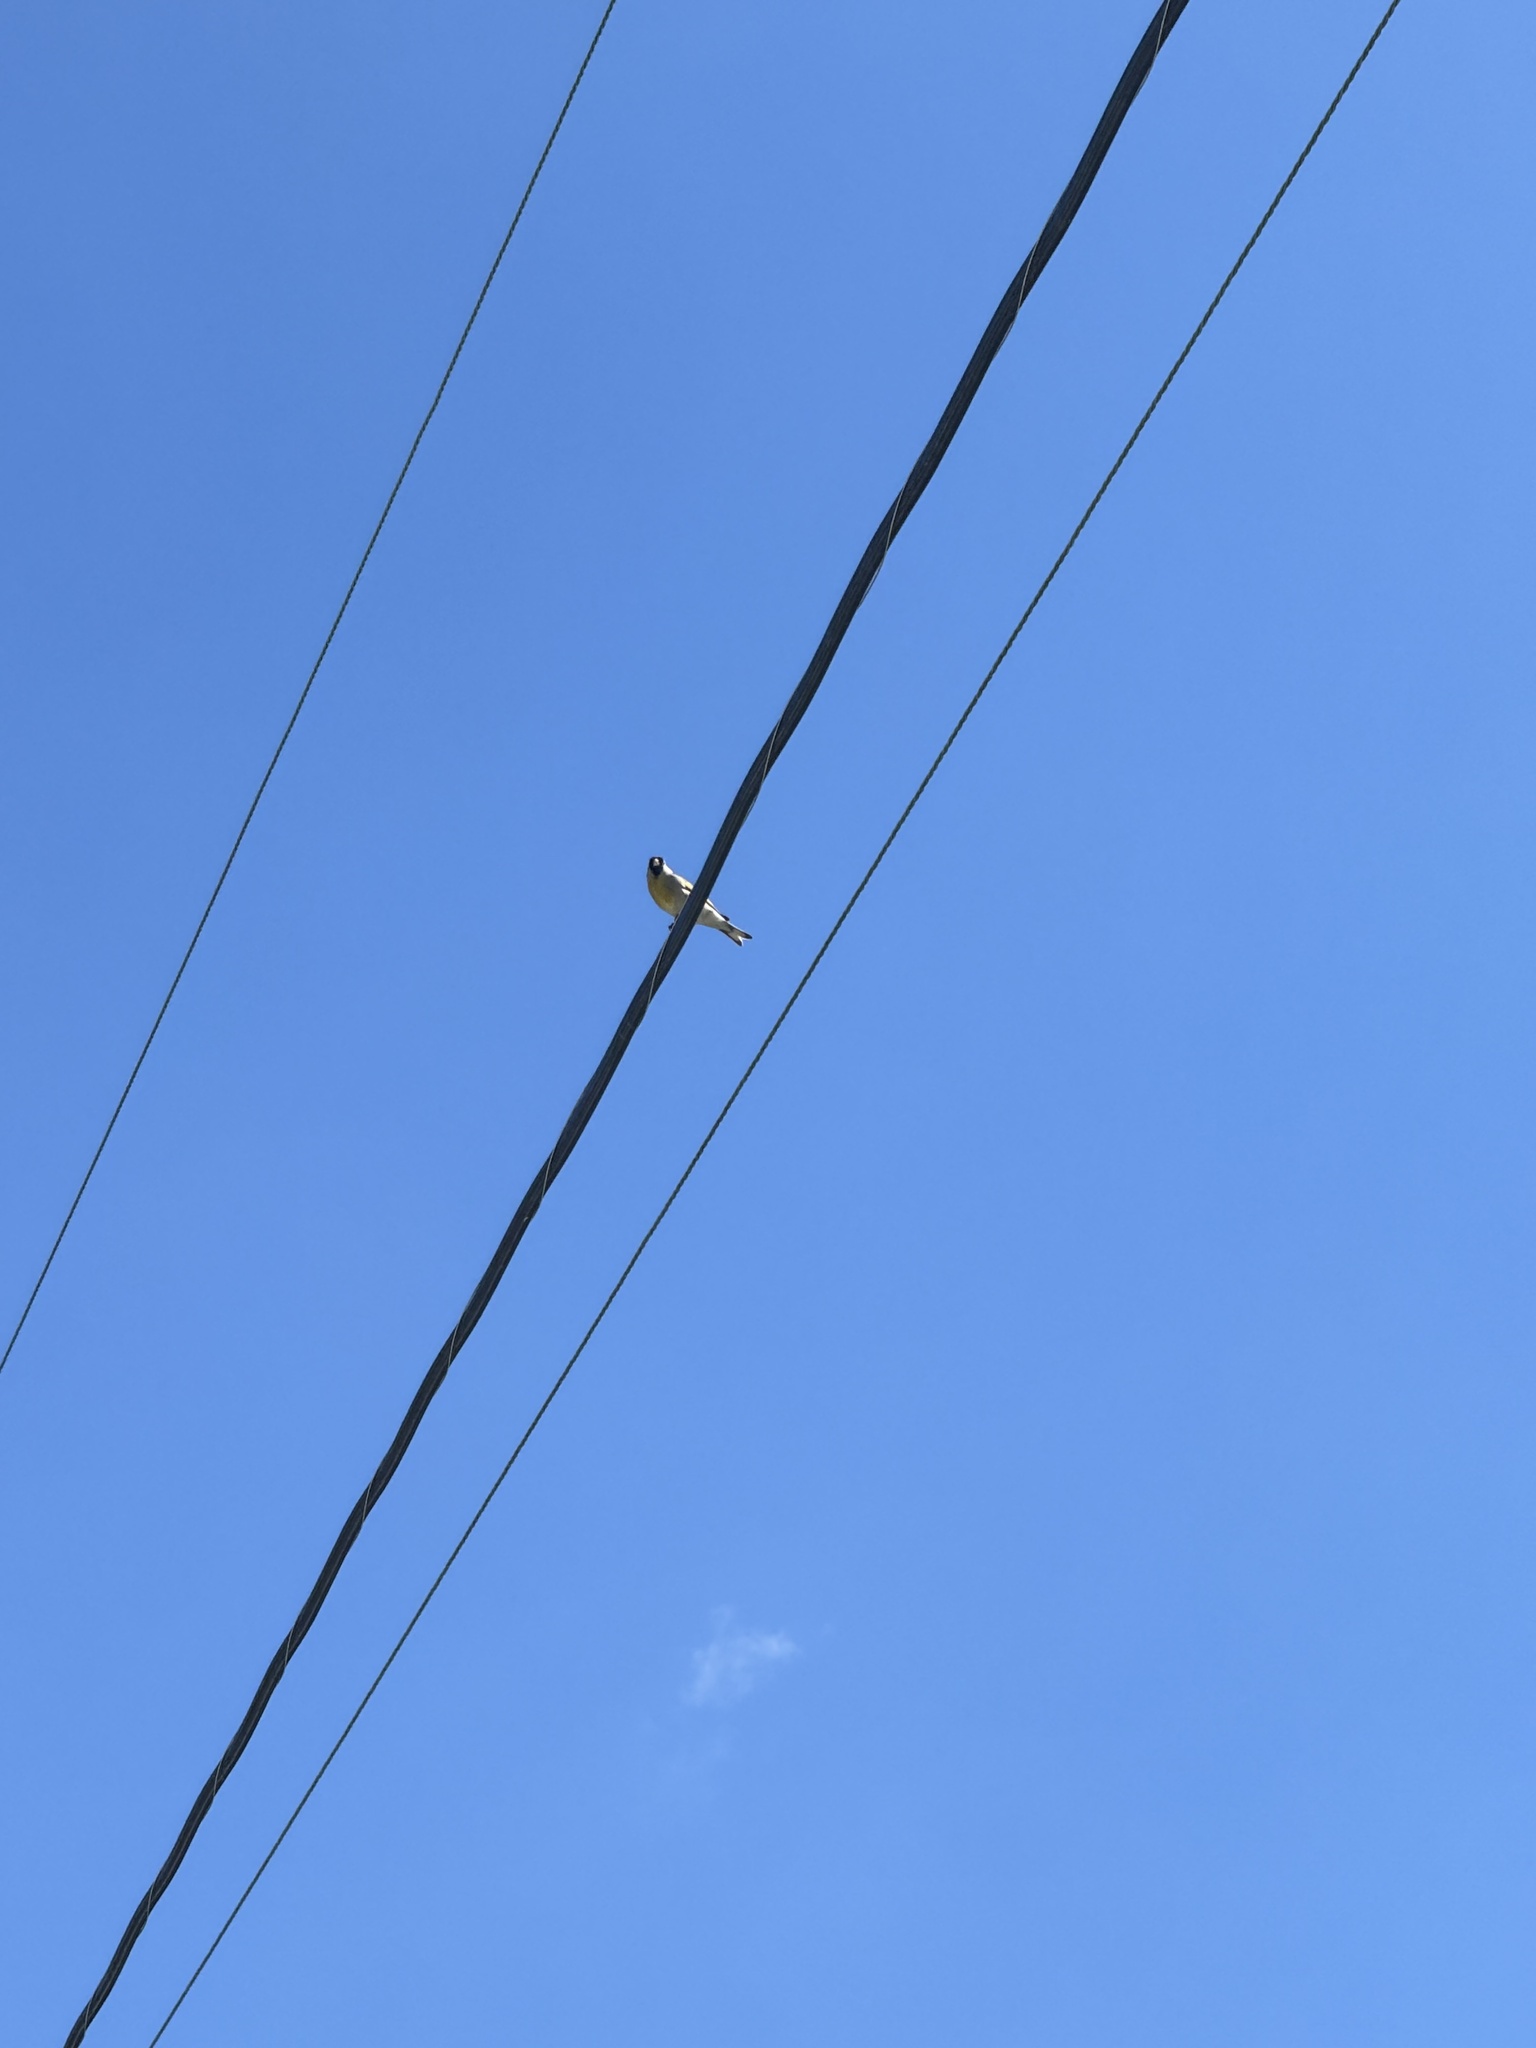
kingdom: Animalia
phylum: Chordata
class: Aves
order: Passeriformes
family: Fringillidae
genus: Spinus
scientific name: Spinus lawrencei
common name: Lawrence's goldfinch
